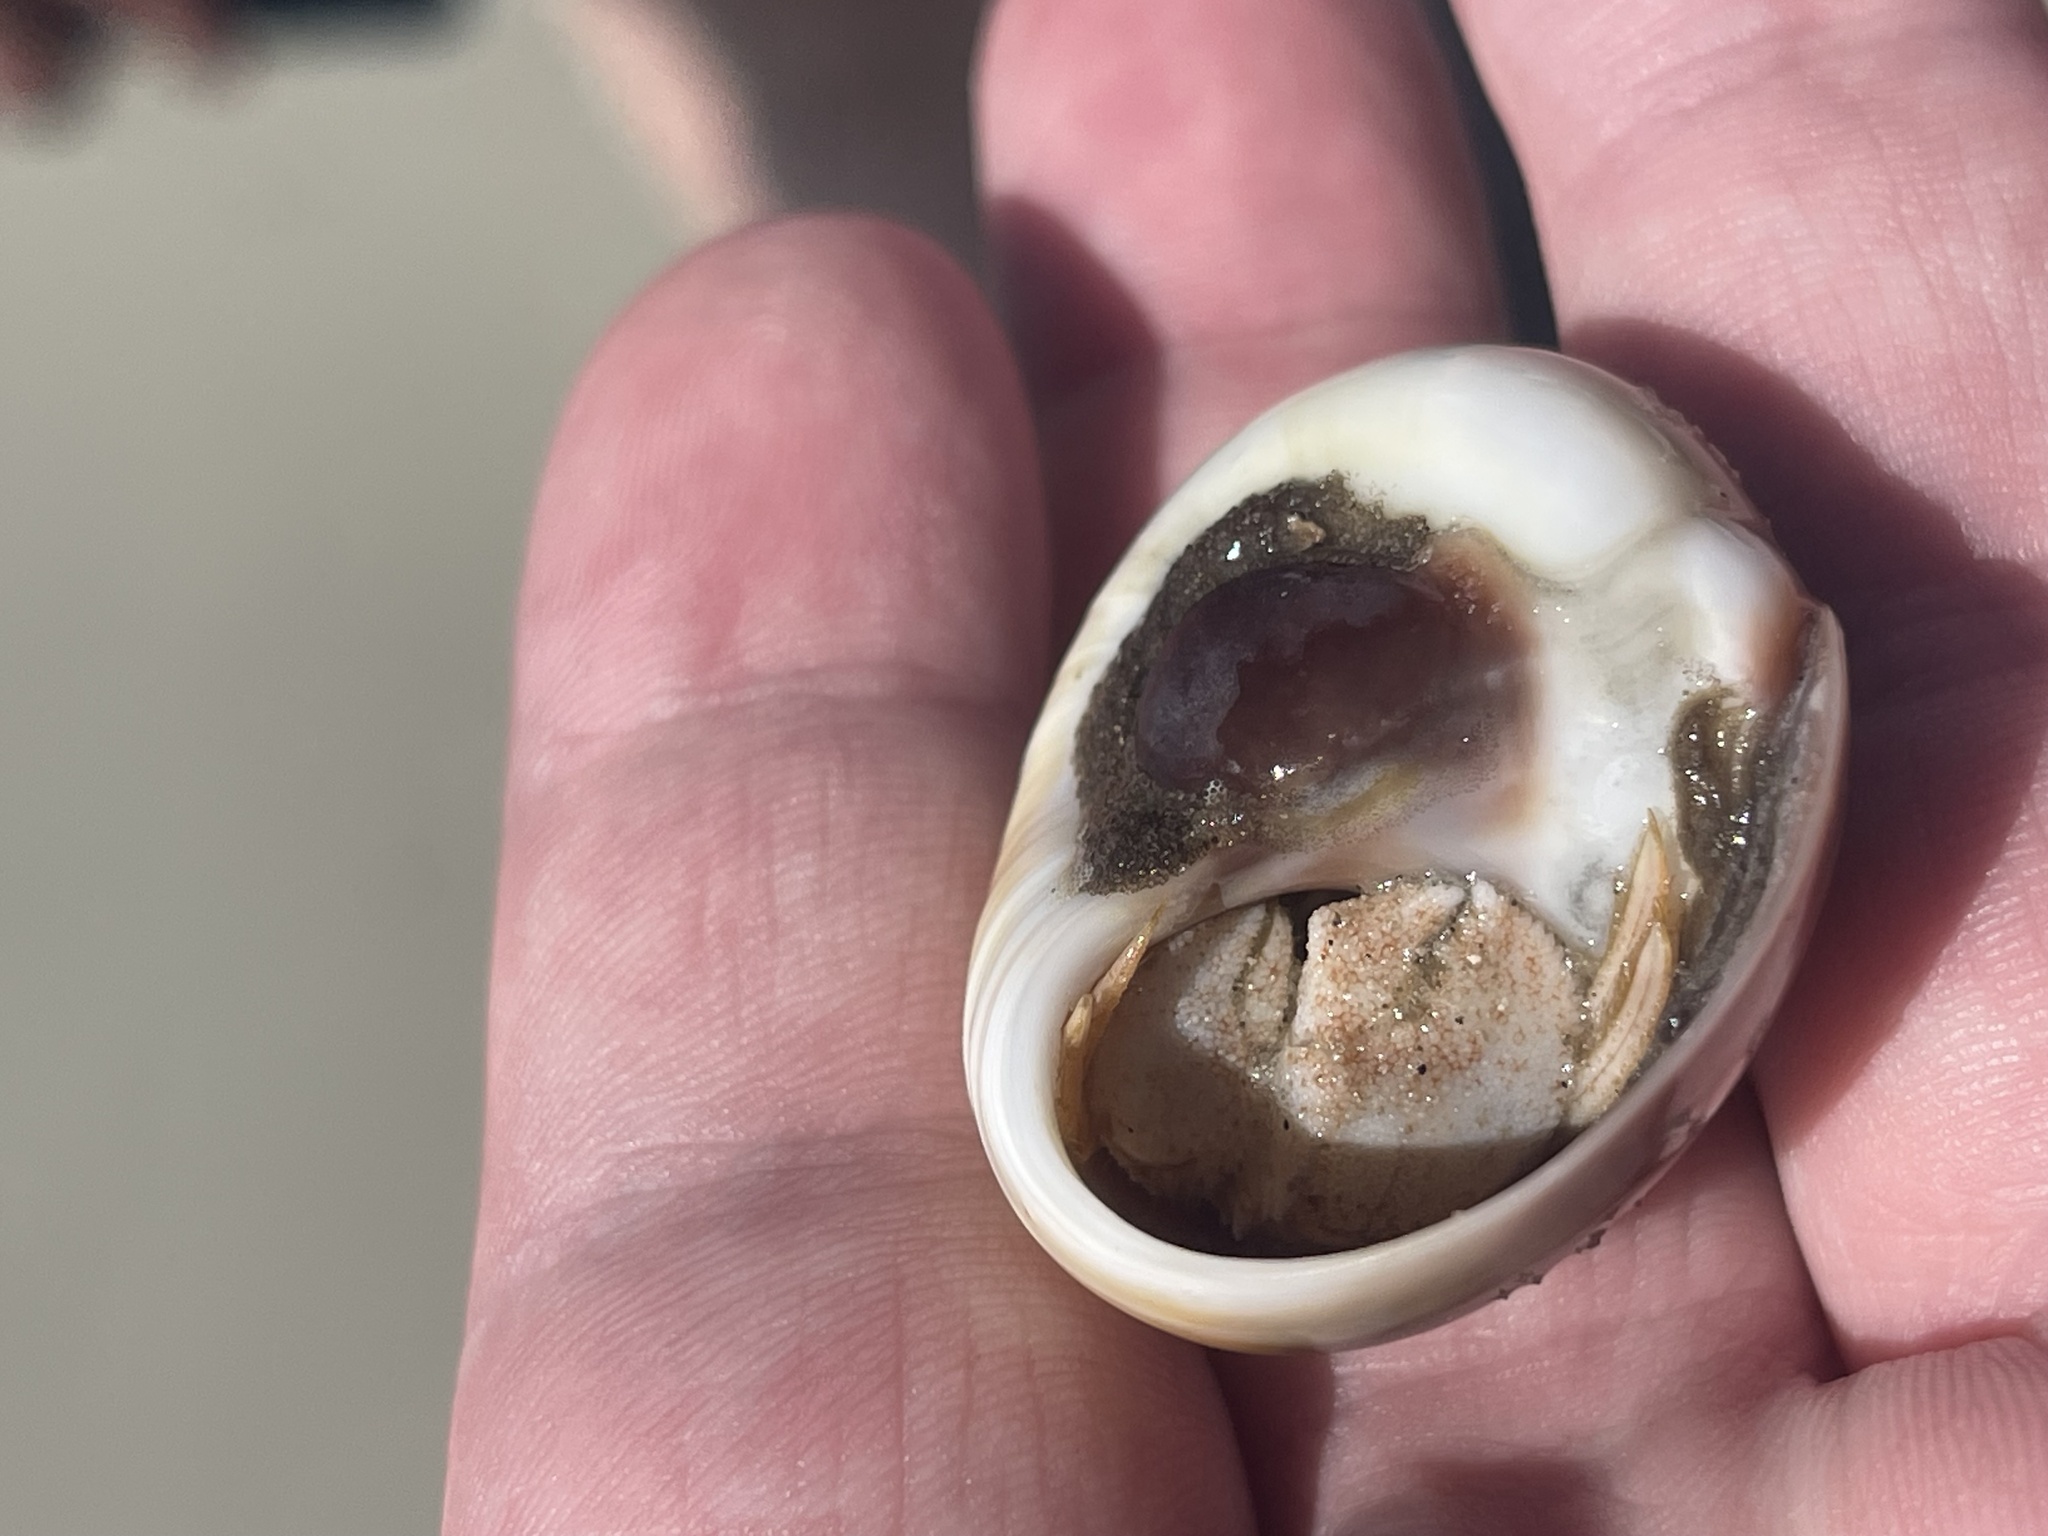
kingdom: Animalia
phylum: Arthropoda
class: Malacostraca
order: Decapoda
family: Paguridae
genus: Pagurus
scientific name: Pagurus pollicaris
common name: Flatclaw hermit
